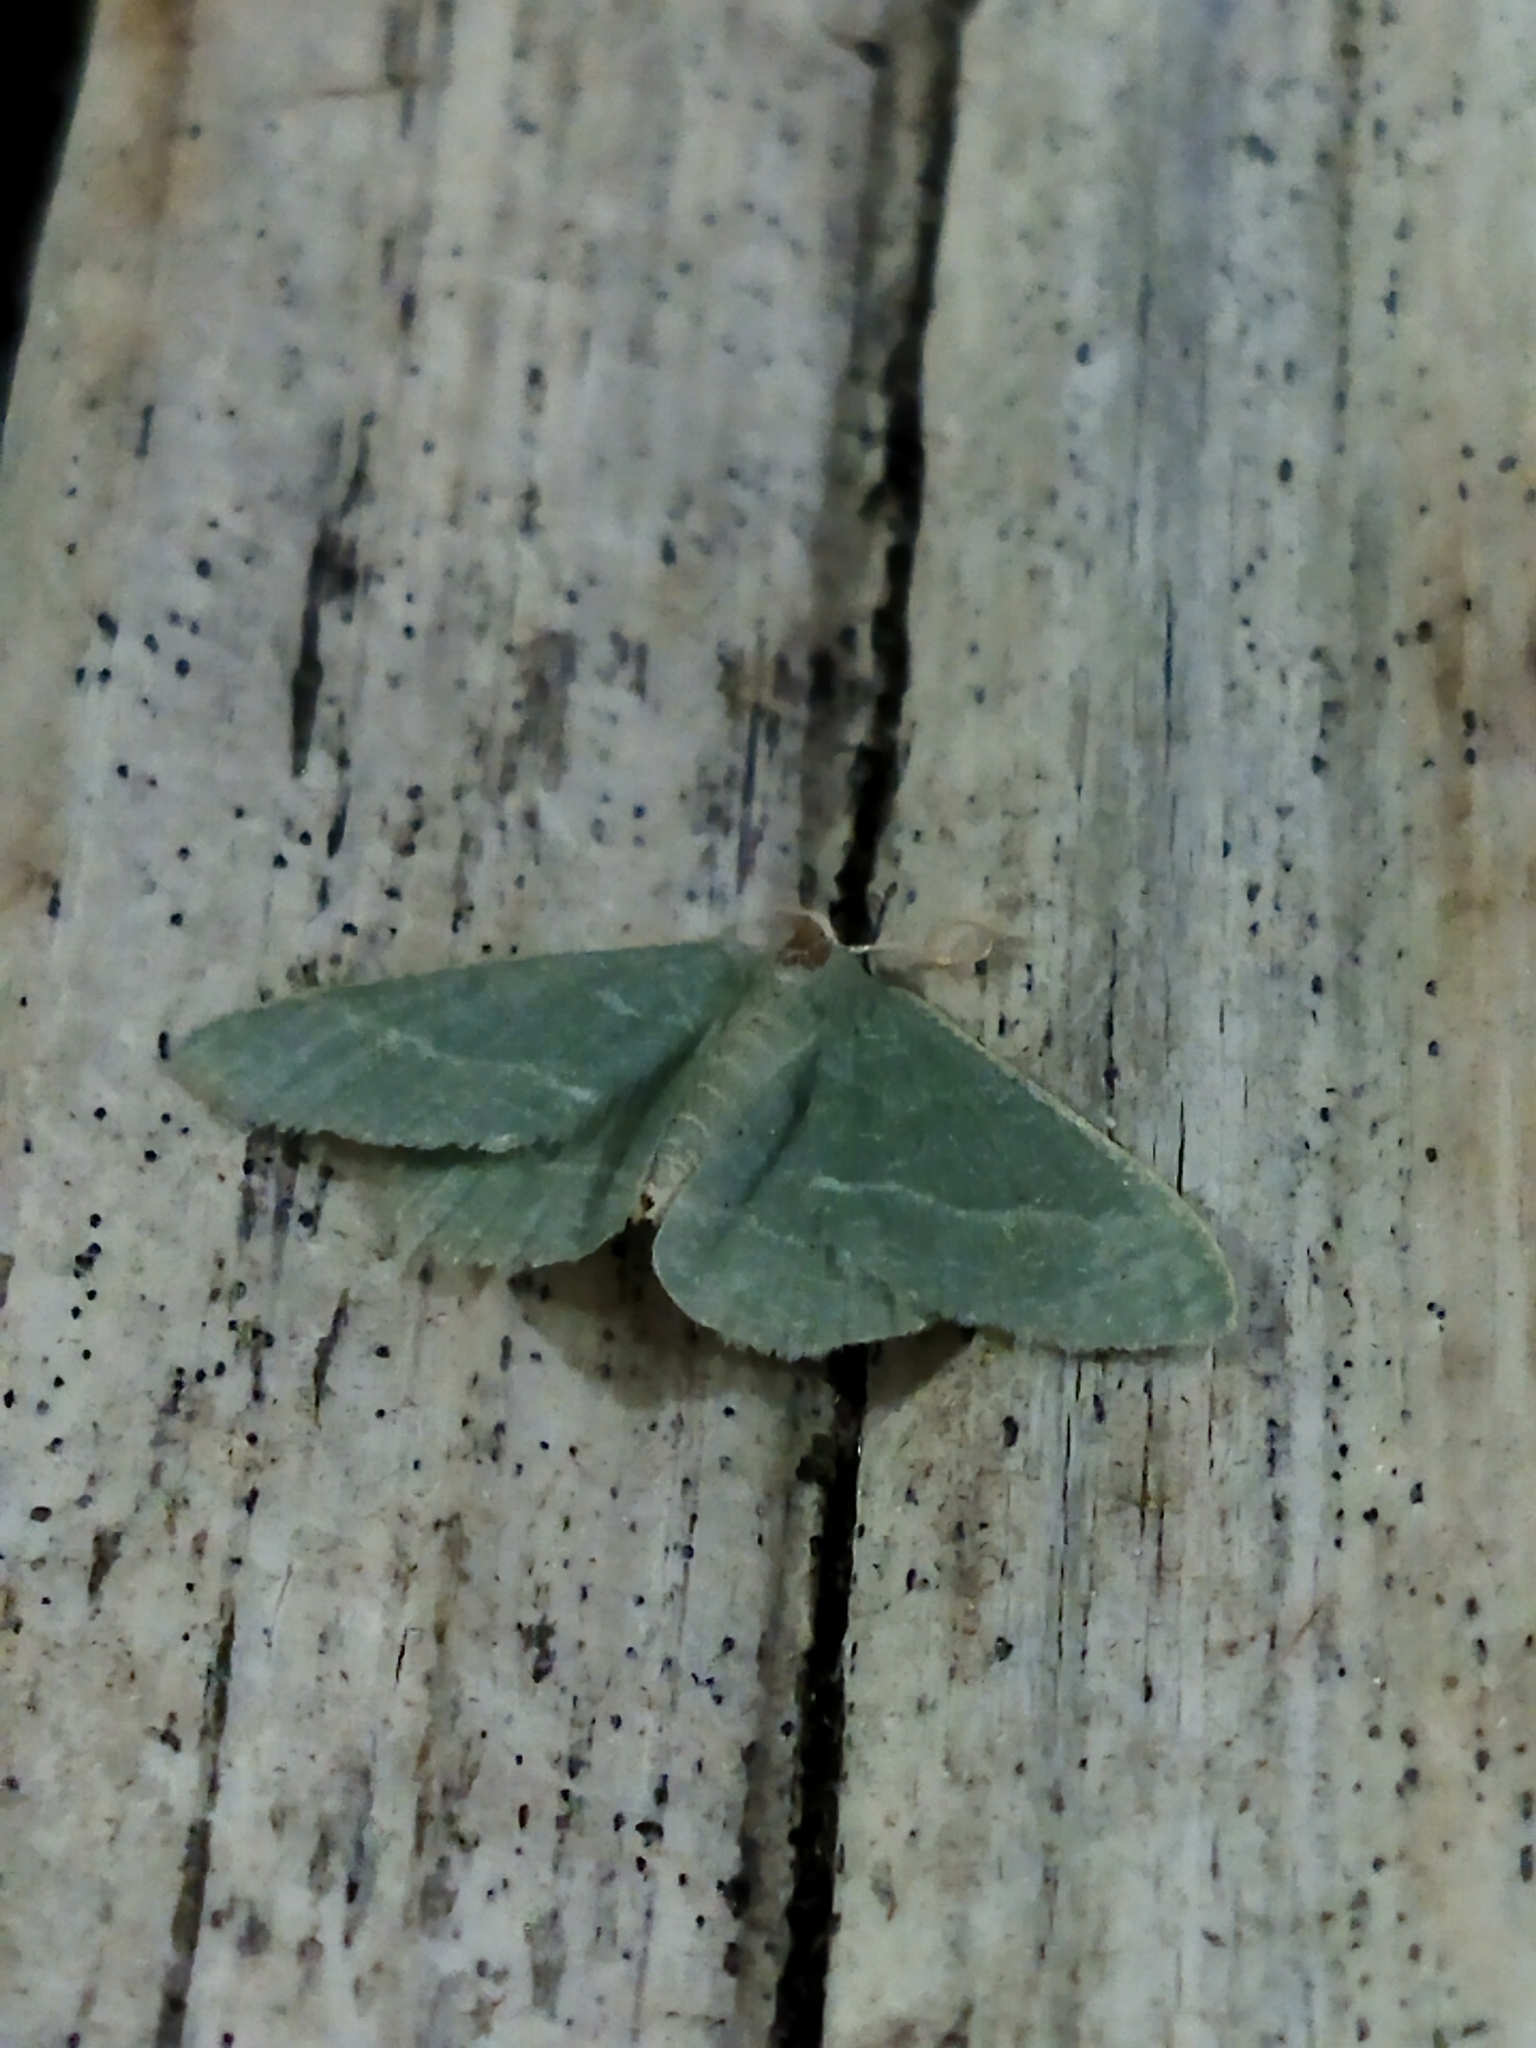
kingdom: Animalia
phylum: Arthropoda
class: Insecta
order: Lepidoptera
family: Geometridae
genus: Chlorissa
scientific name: Chlorissa etruscaria
